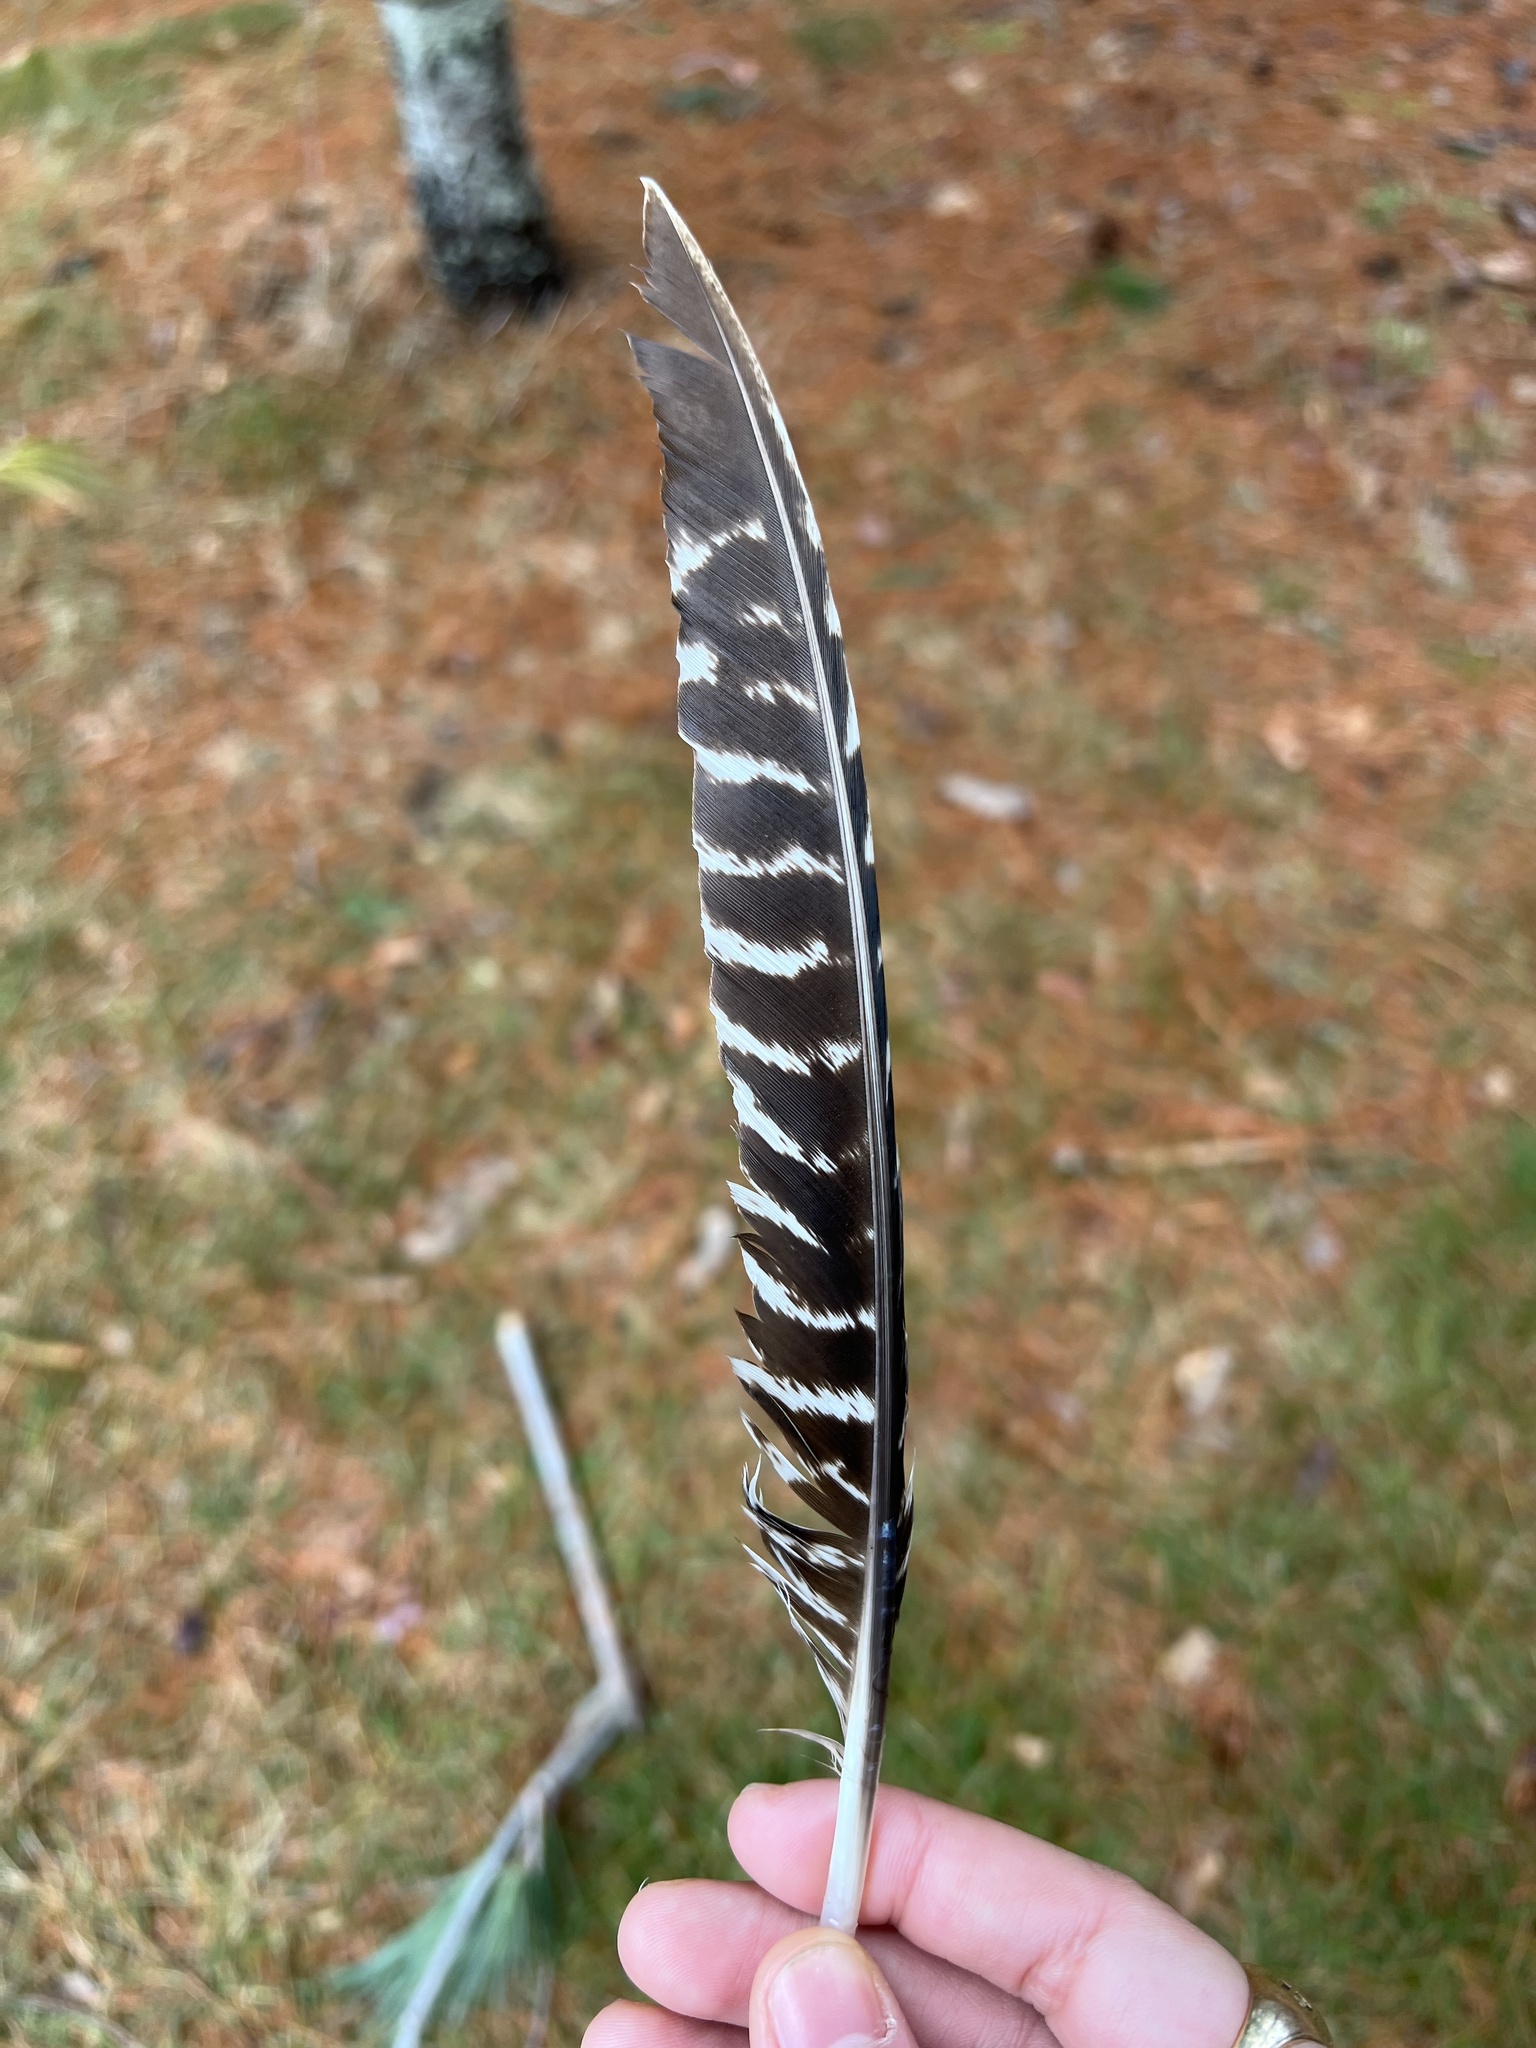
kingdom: Animalia
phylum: Chordata
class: Aves
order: Galliformes
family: Phasianidae
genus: Meleagris
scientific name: Meleagris gallopavo
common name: Wild turkey
